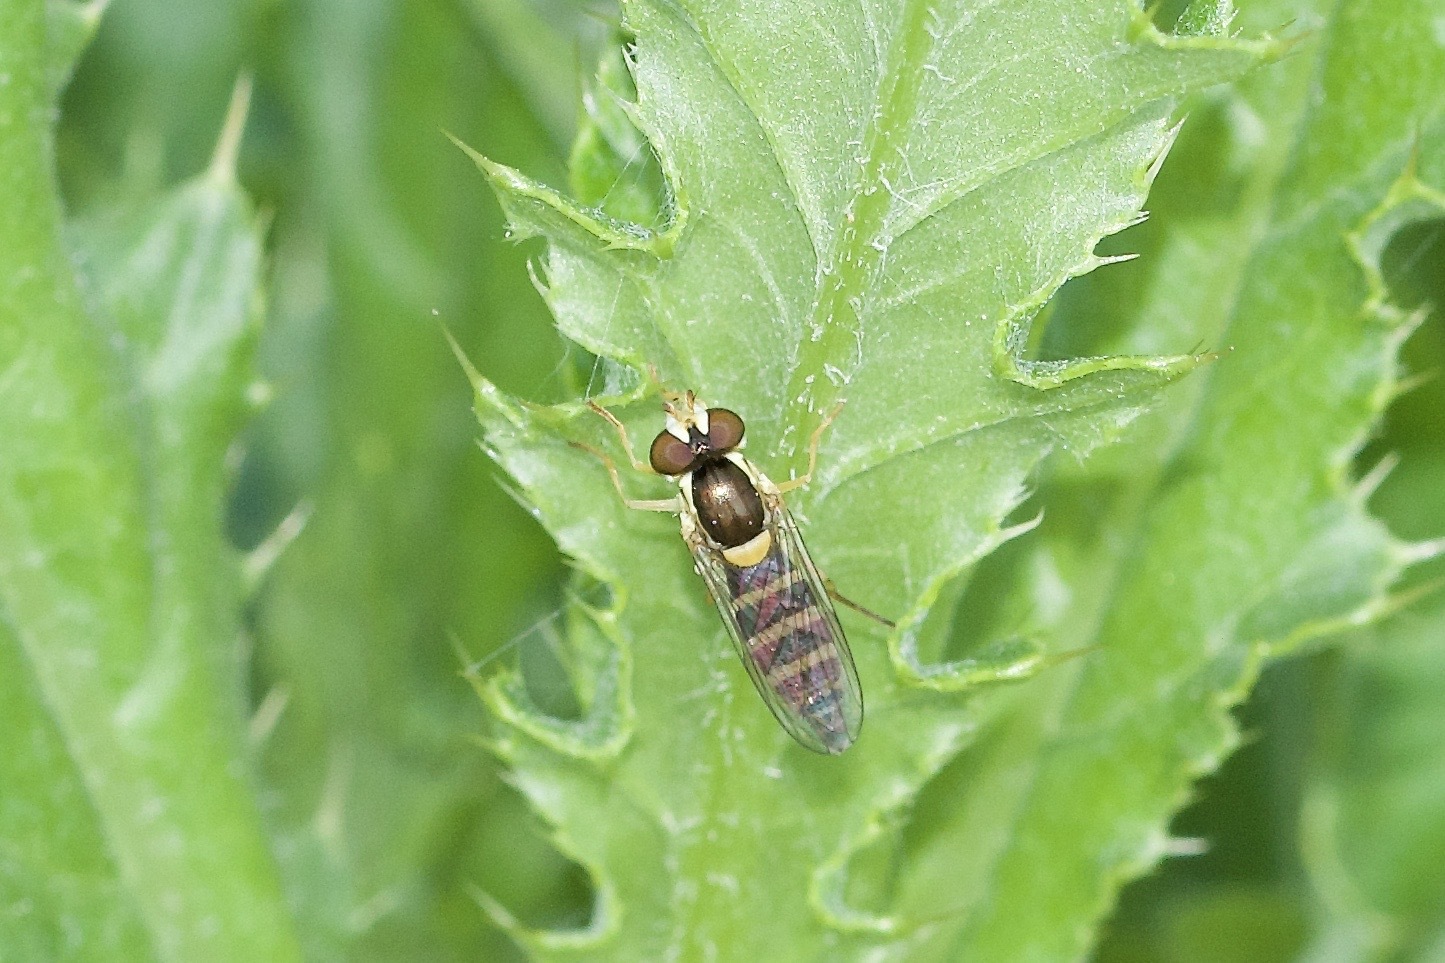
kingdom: Animalia
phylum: Arthropoda
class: Insecta
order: Diptera
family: Syrphidae
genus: Sphaerophoria
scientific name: Sphaerophoria
